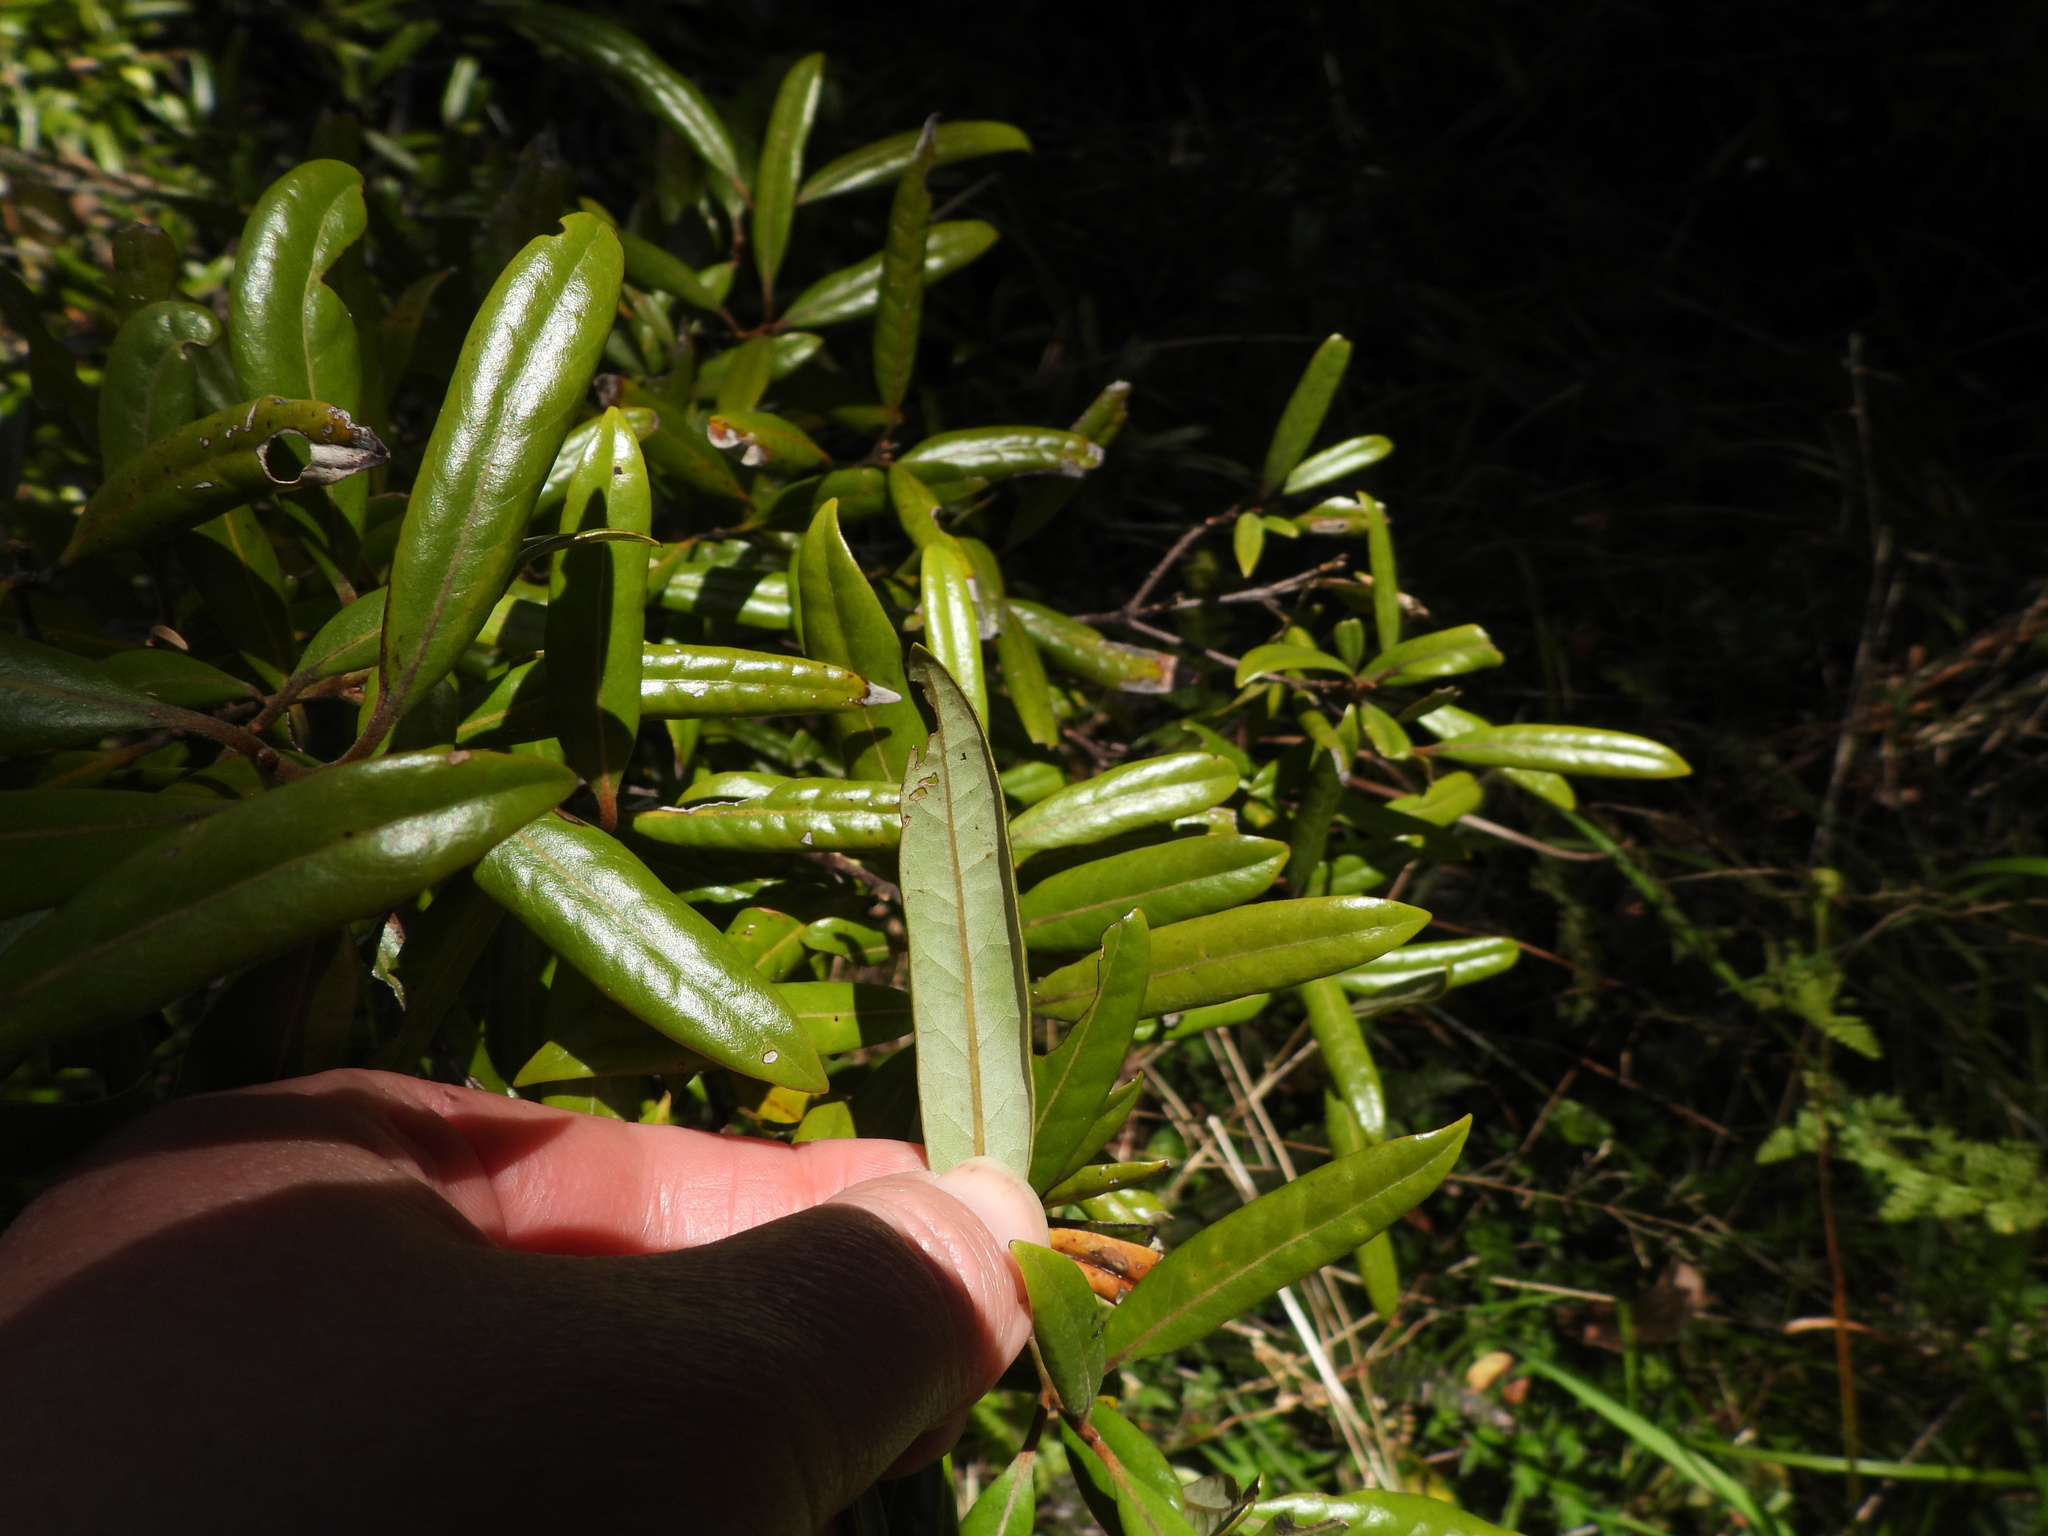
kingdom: Plantae
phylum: Tracheophyta
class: Magnoliopsida
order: Laurales
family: Lauraceae
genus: Beilschmiedia
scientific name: Beilschmiedia tawa
